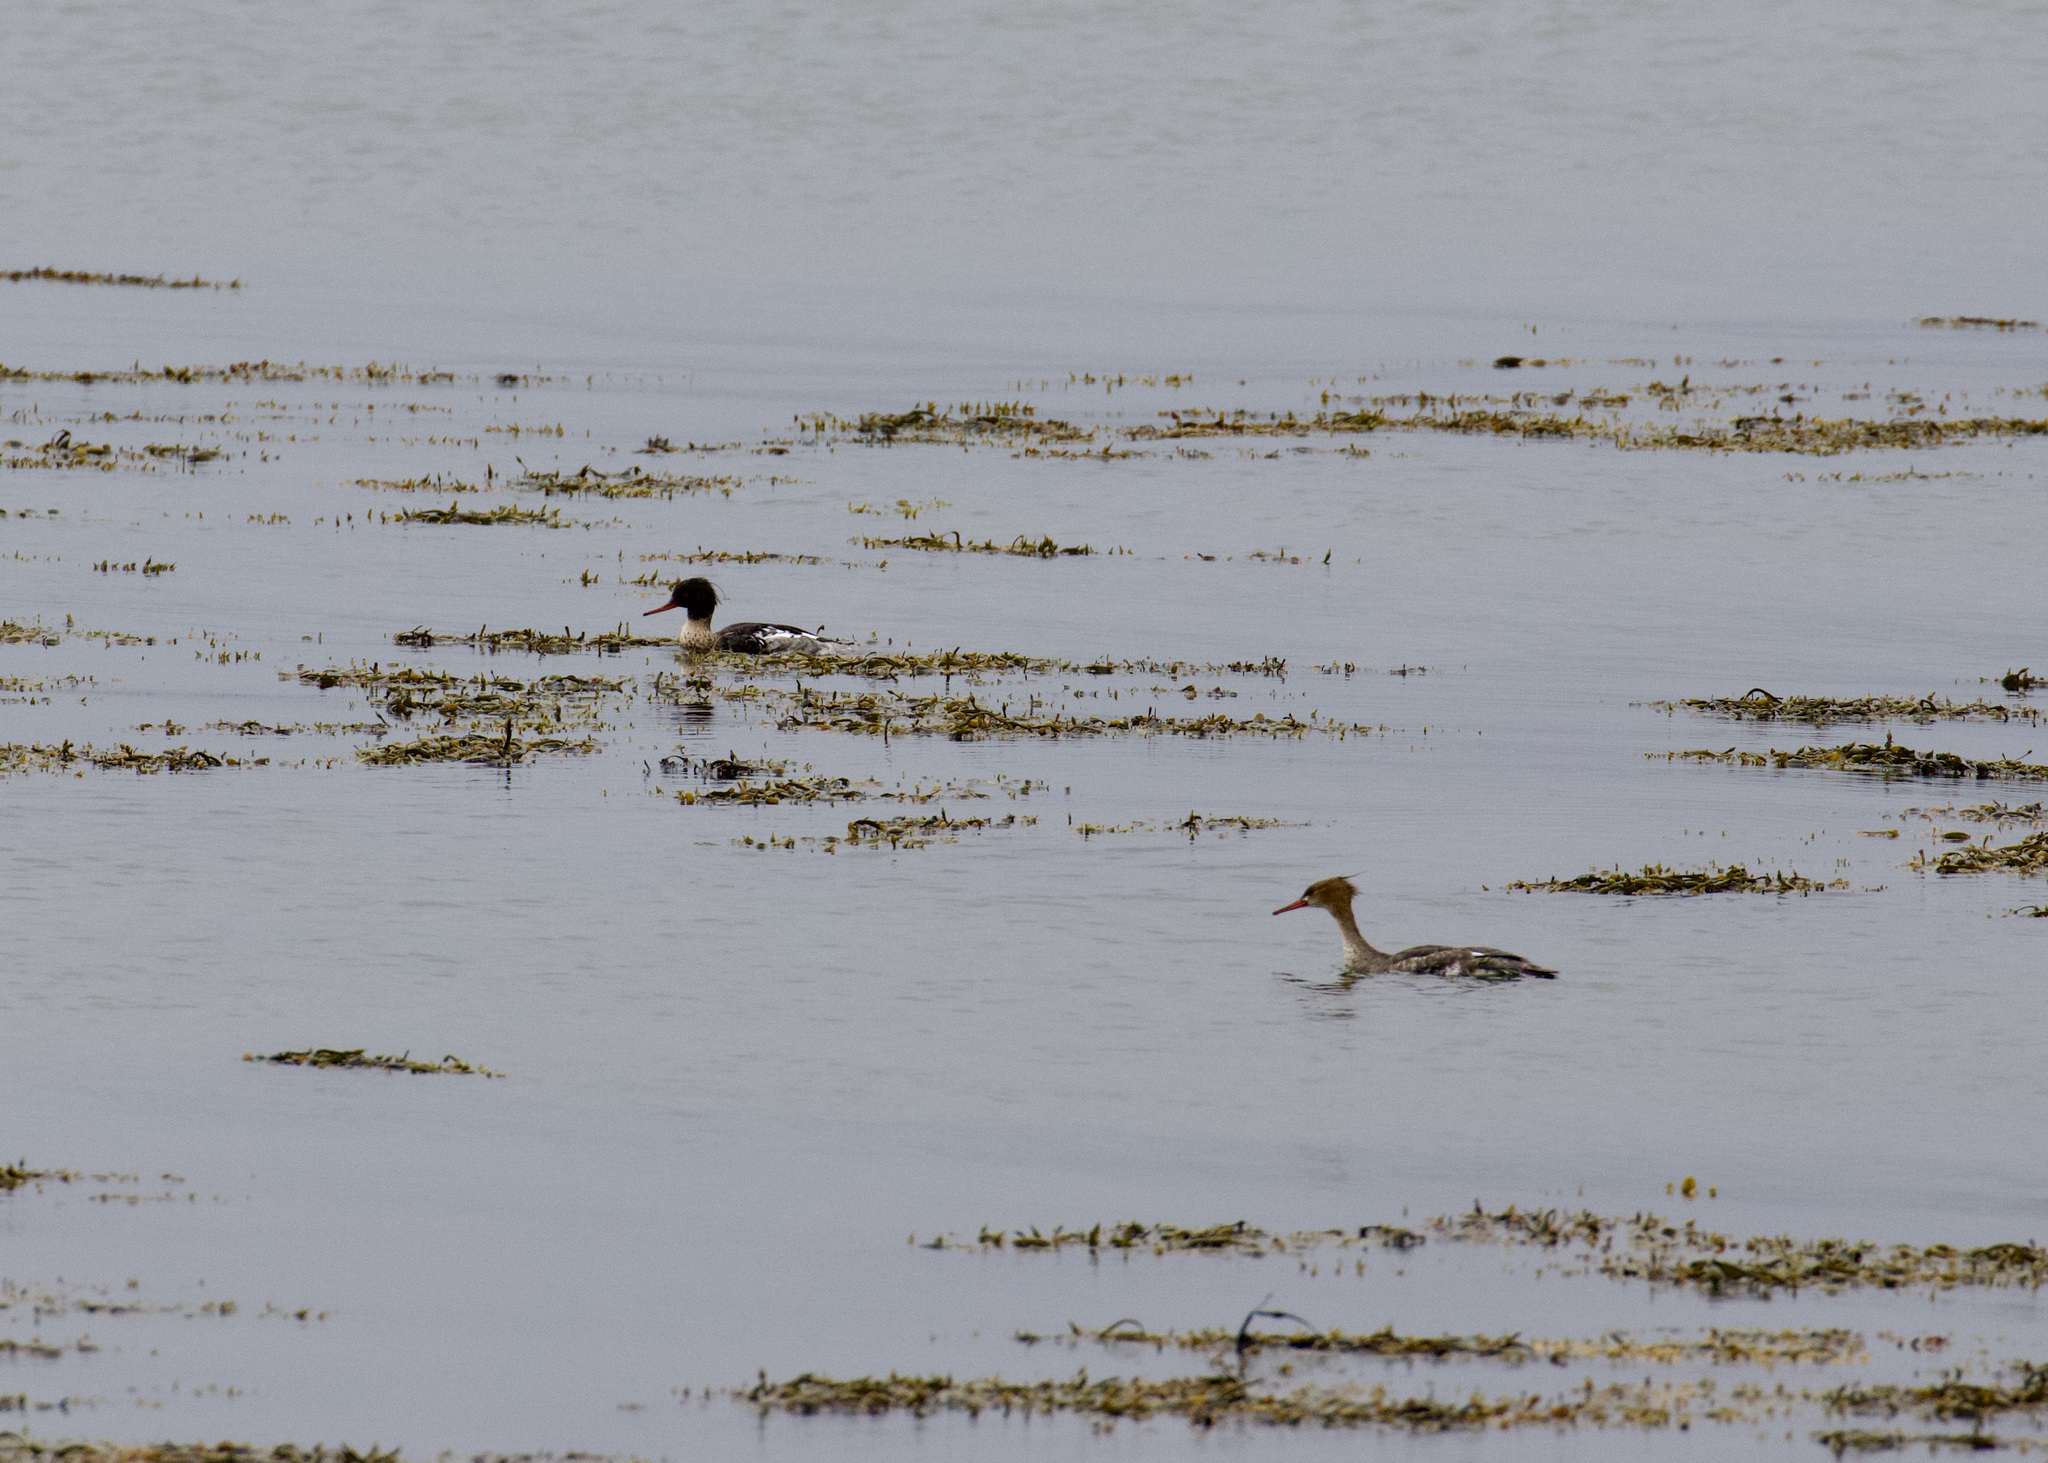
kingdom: Animalia
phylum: Chordata
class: Aves
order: Anseriformes
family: Anatidae
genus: Mergus
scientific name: Mergus serrator
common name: Red-breasted merganser
